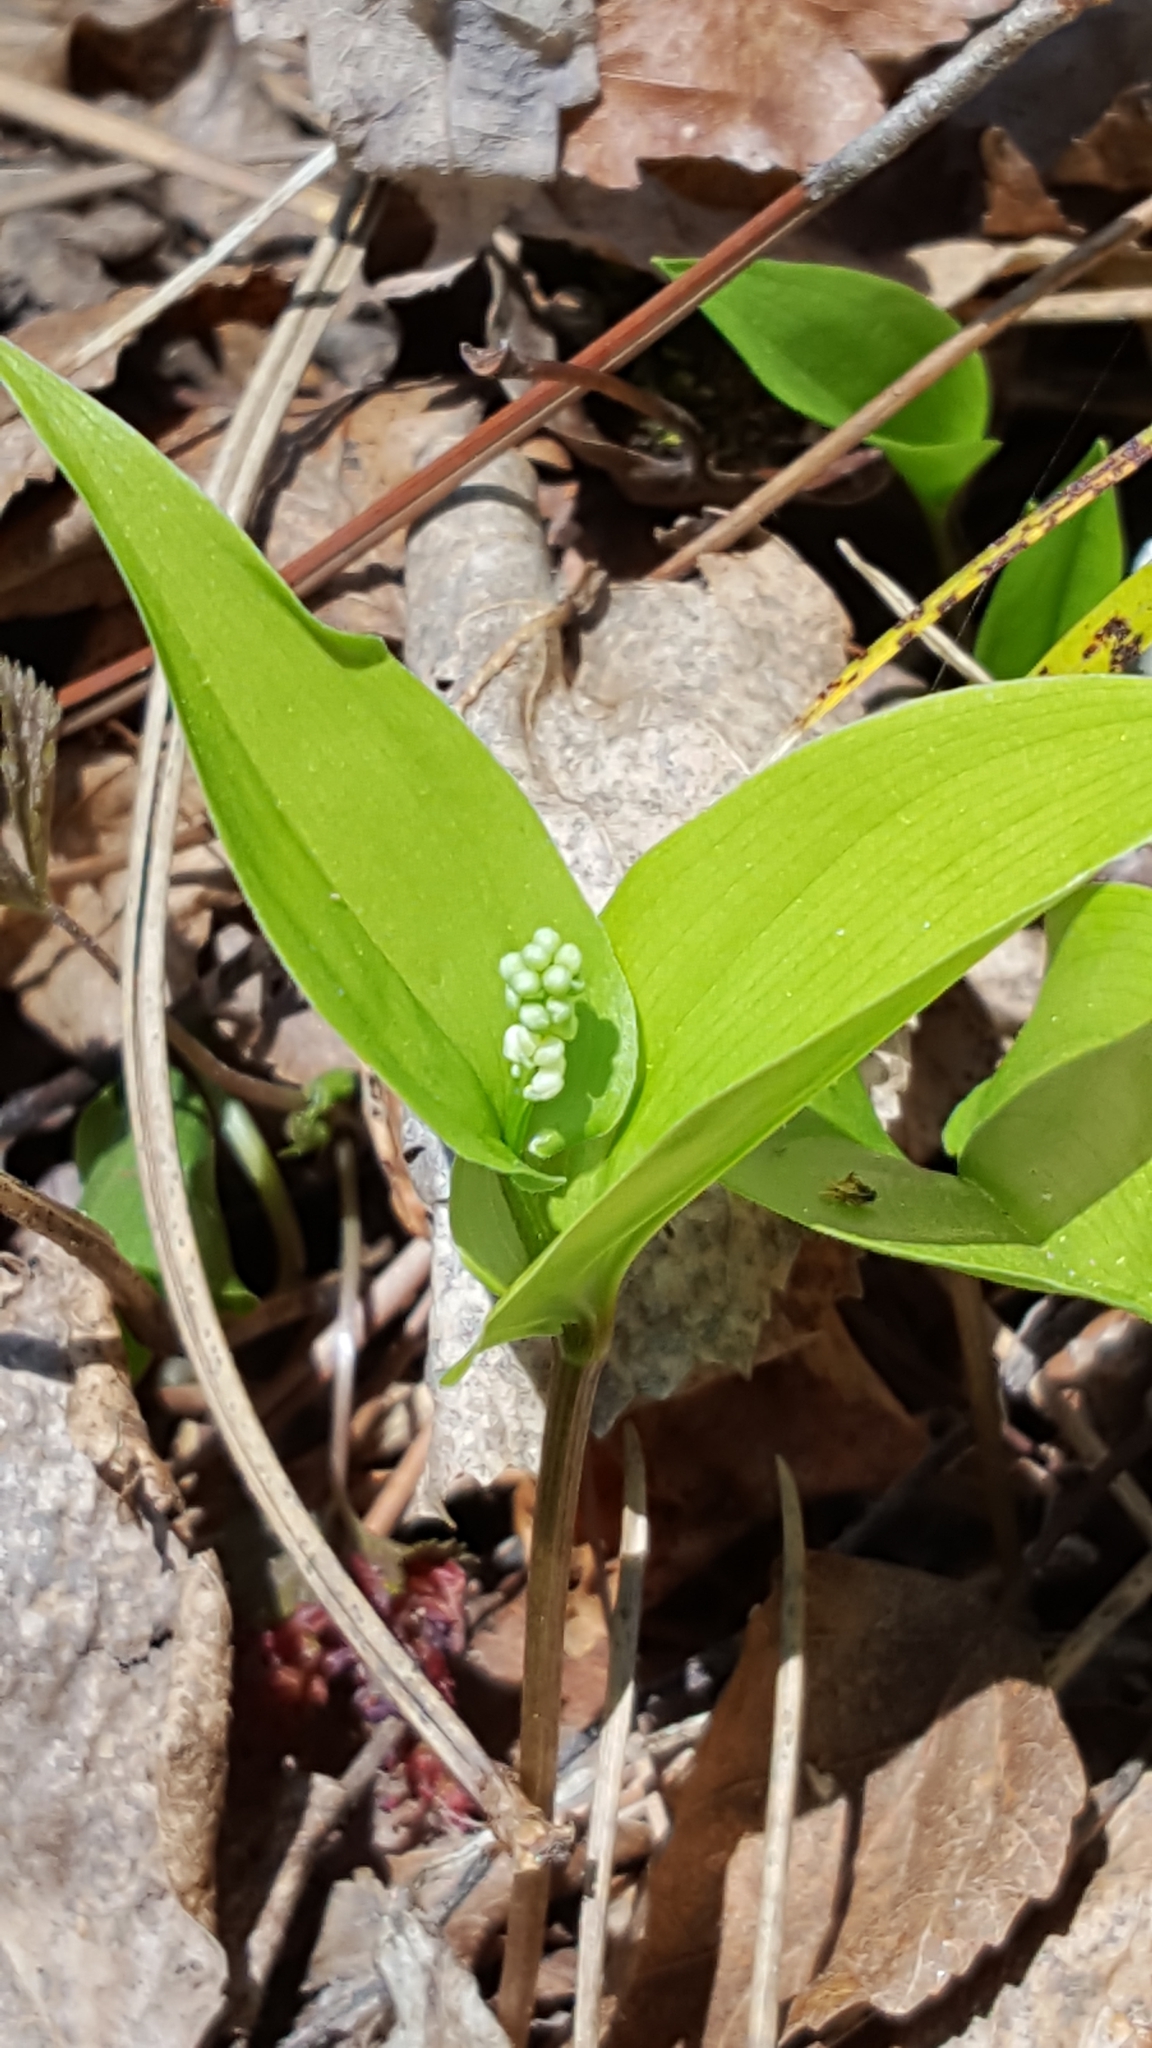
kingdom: Plantae
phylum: Tracheophyta
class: Liliopsida
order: Asparagales
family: Asparagaceae
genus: Maianthemum
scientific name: Maianthemum canadense
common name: False lily-of-the-valley
